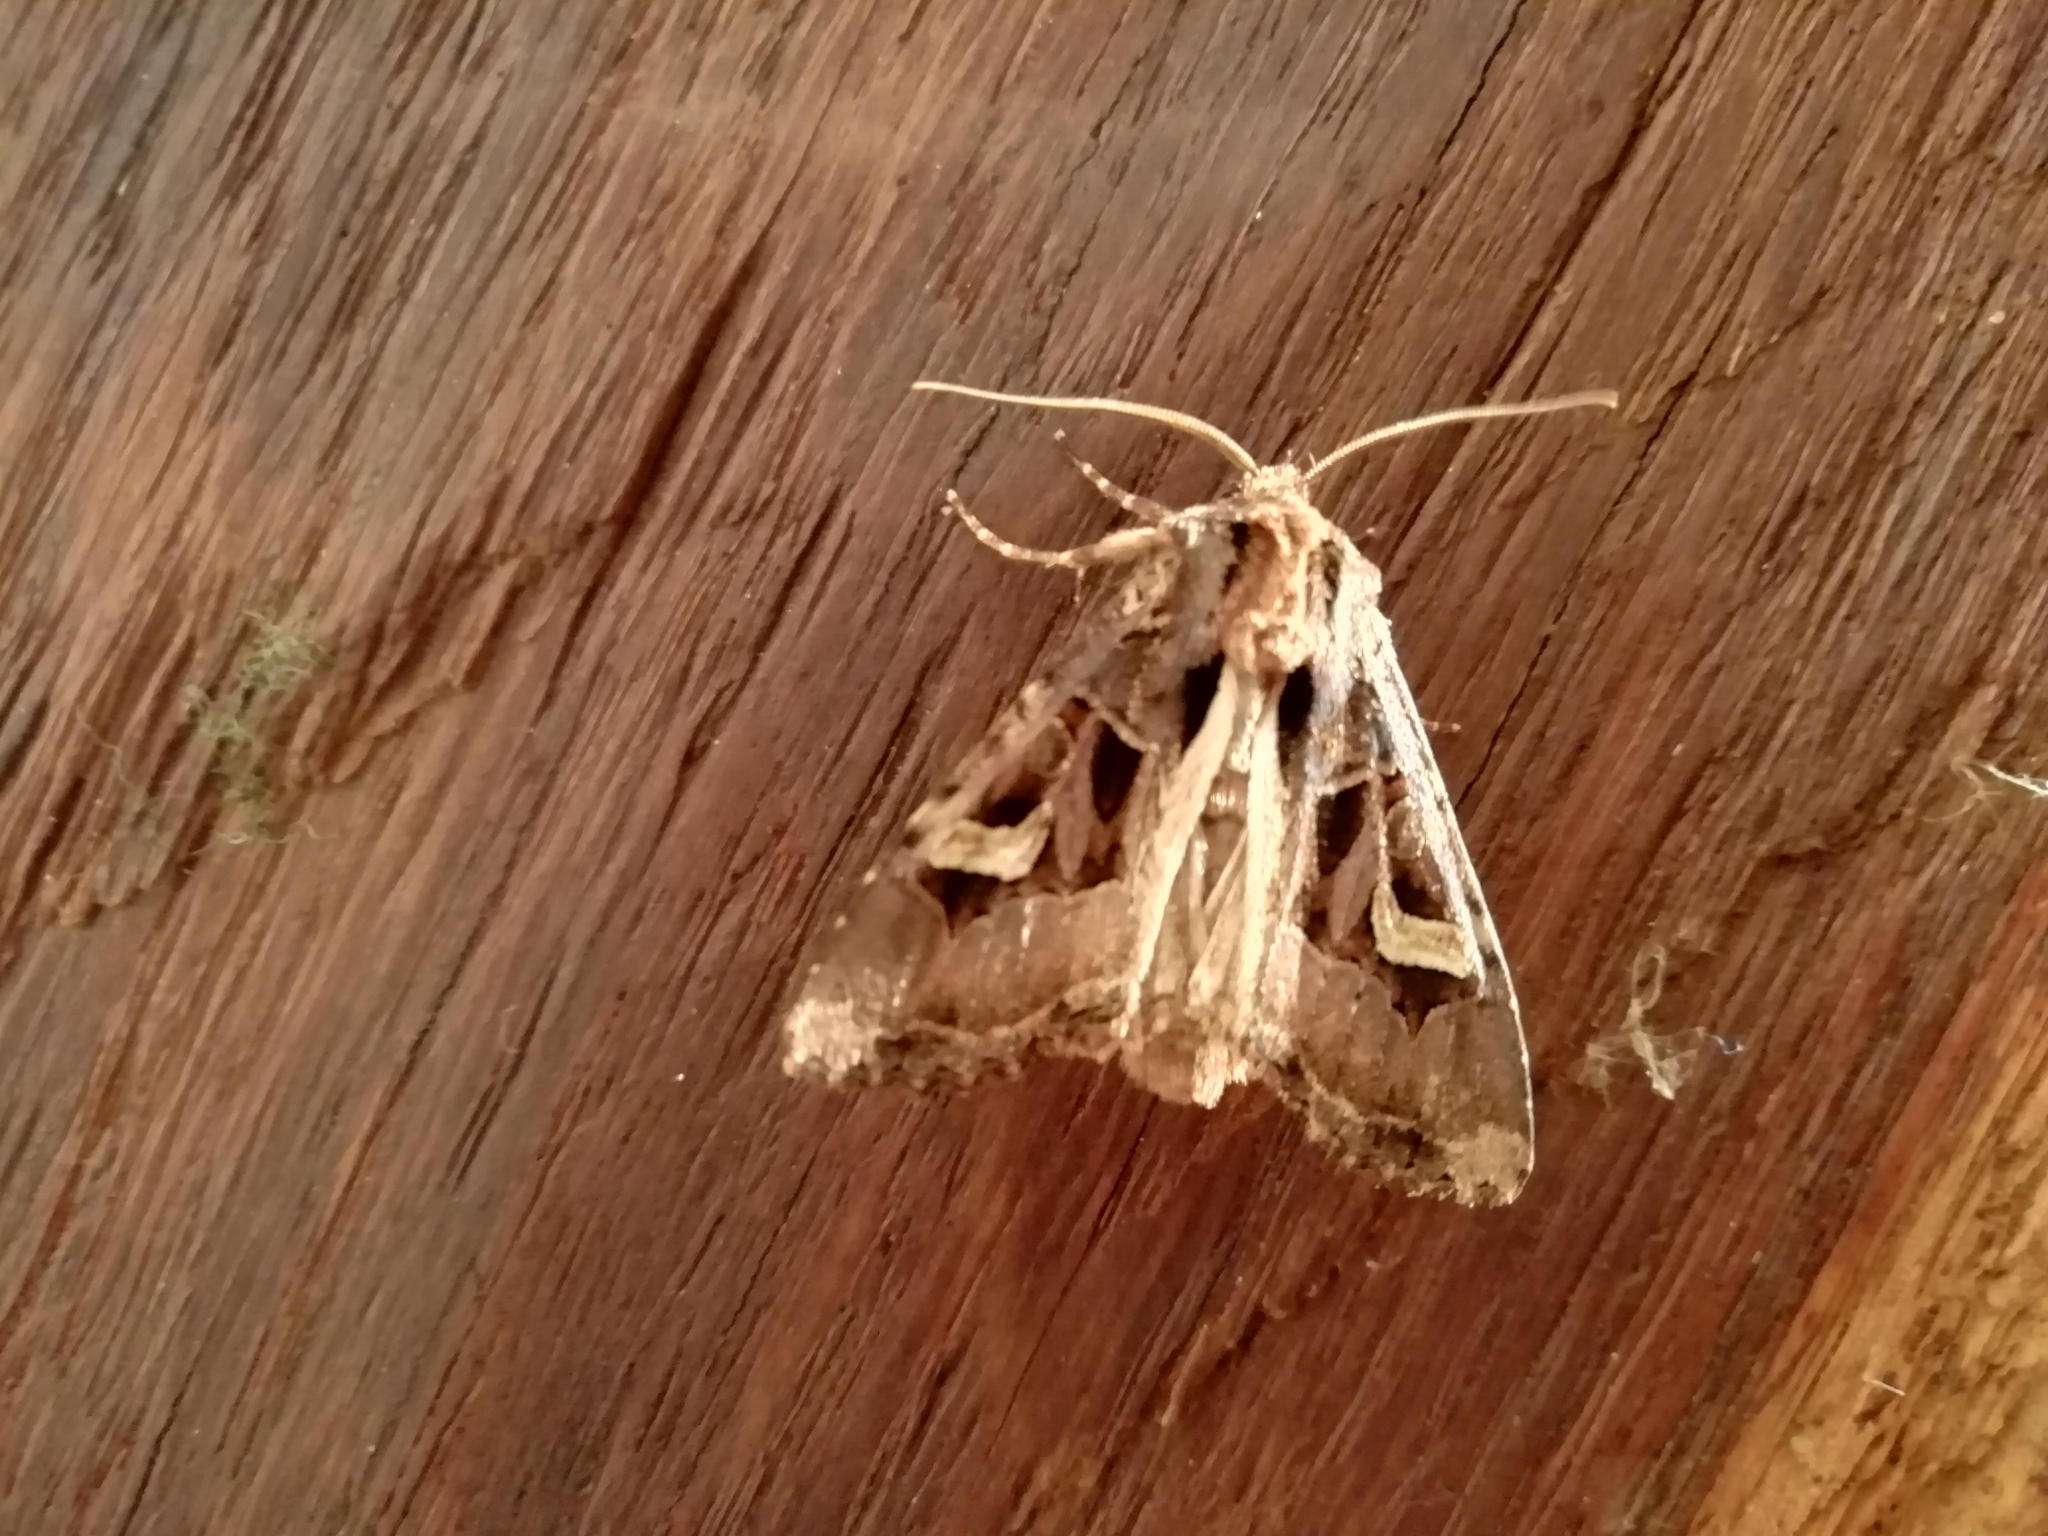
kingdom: Animalia
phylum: Arthropoda
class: Insecta
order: Lepidoptera
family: Noctuidae
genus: Trigonophora
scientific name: Trigonophora flammea
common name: Flame brocade
